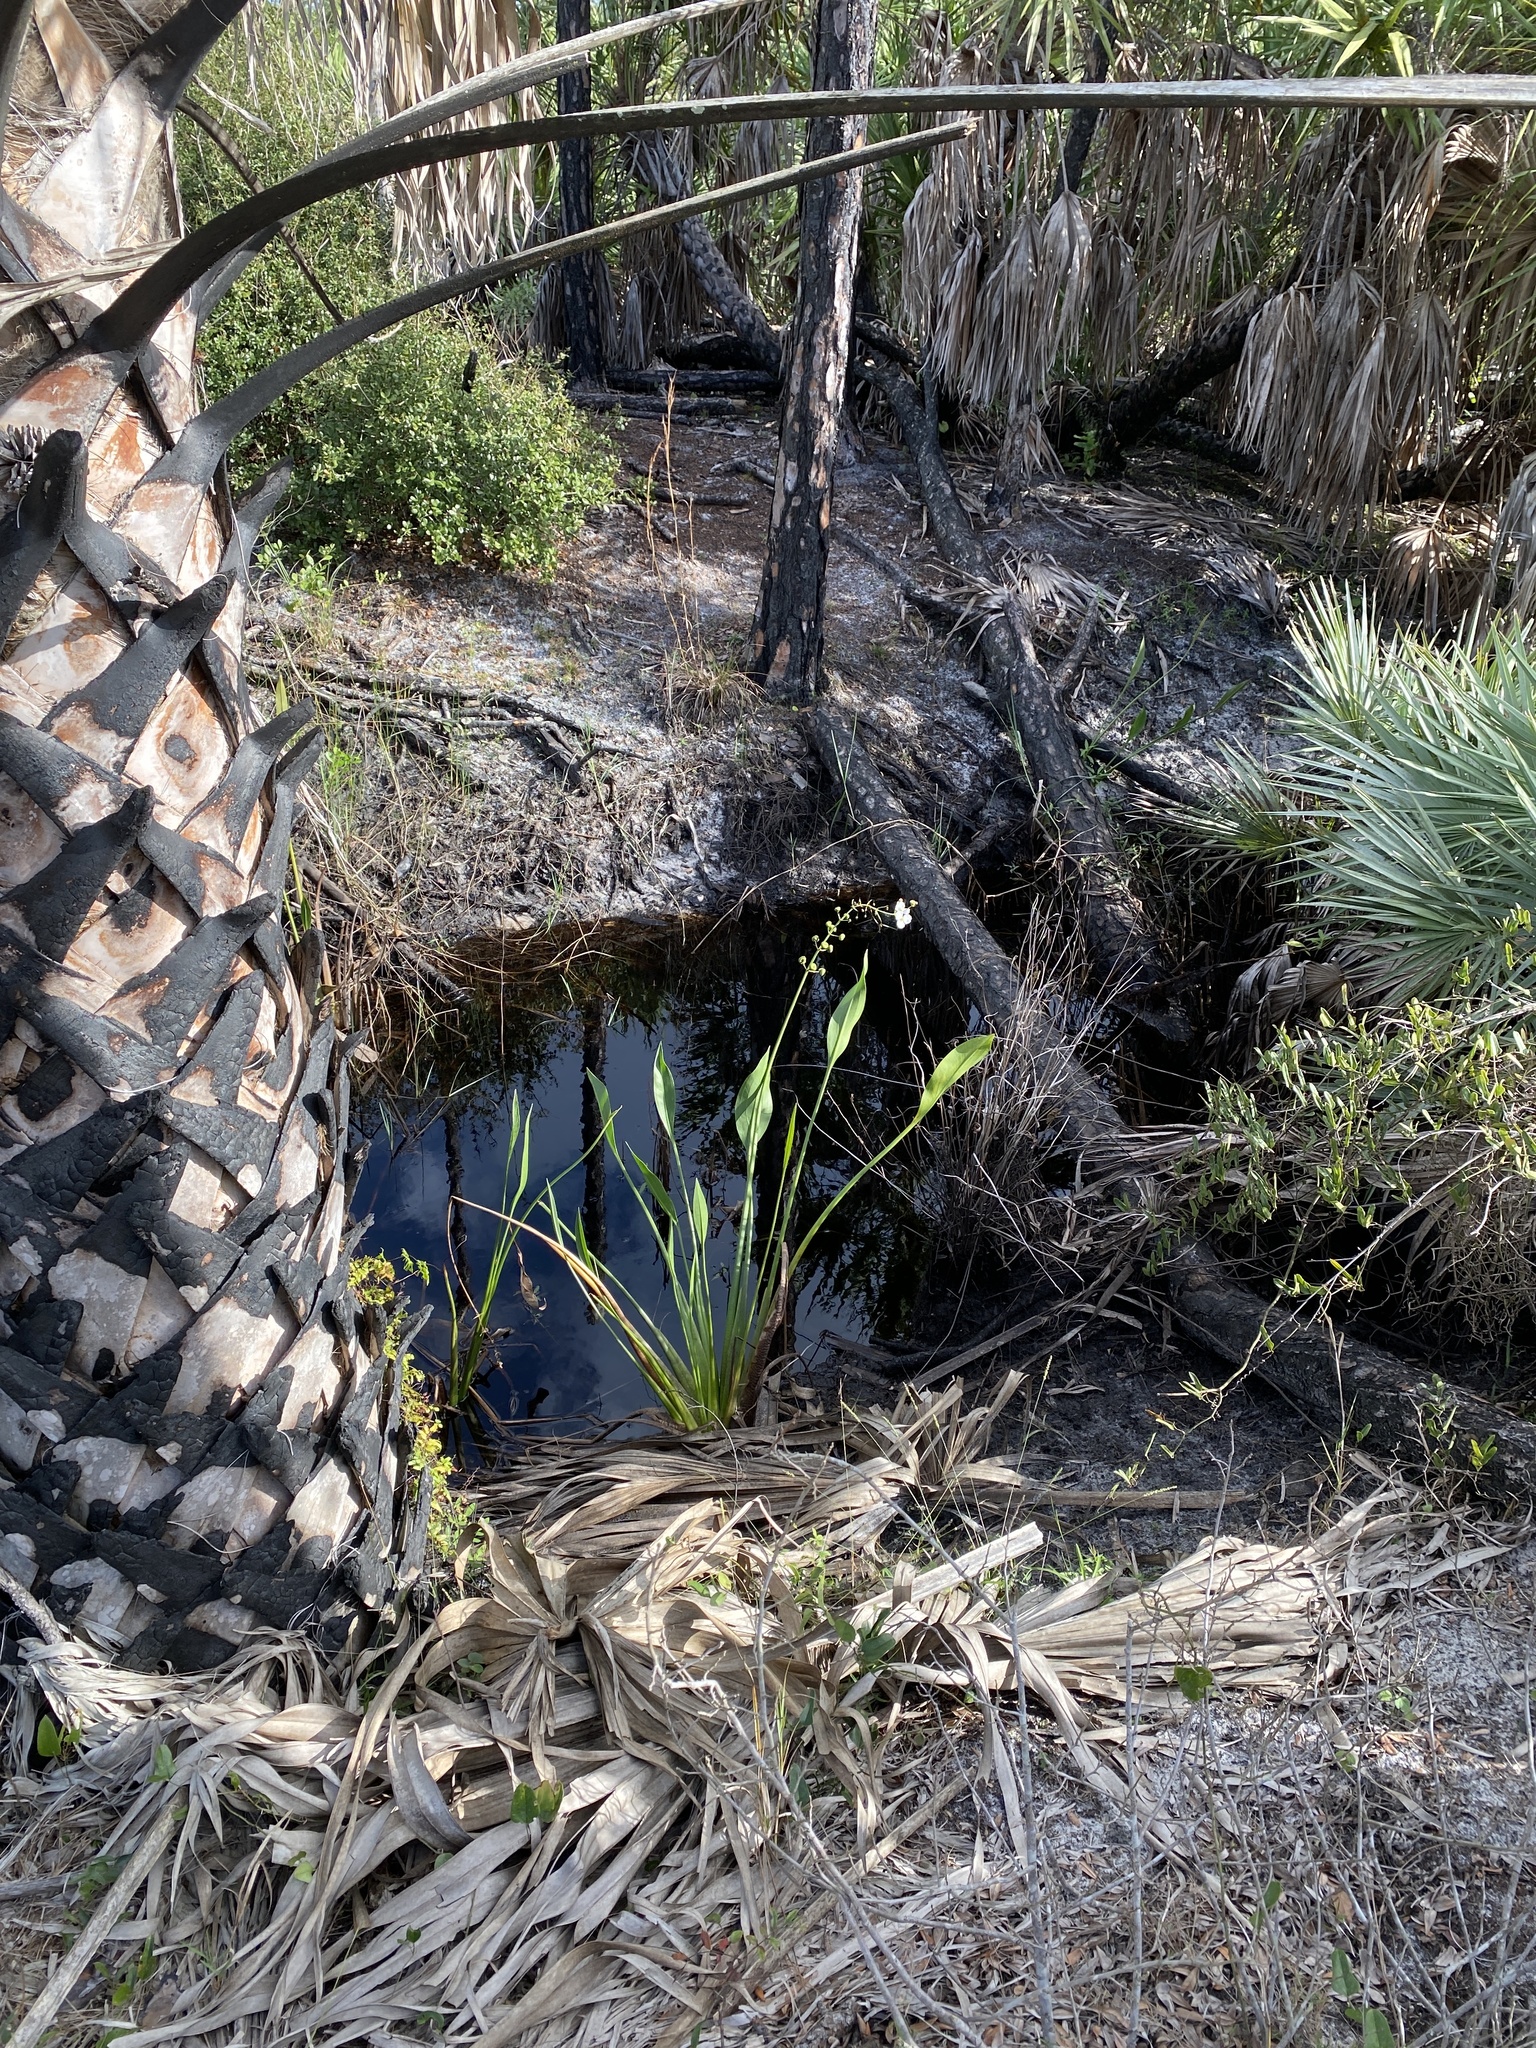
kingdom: Plantae
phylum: Tracheophyta
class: Liliopsida
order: Alismatales
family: Alismataceae
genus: Sagittaria
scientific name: Sagittaria lancifolia
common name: Lance-leaf arrowhead
